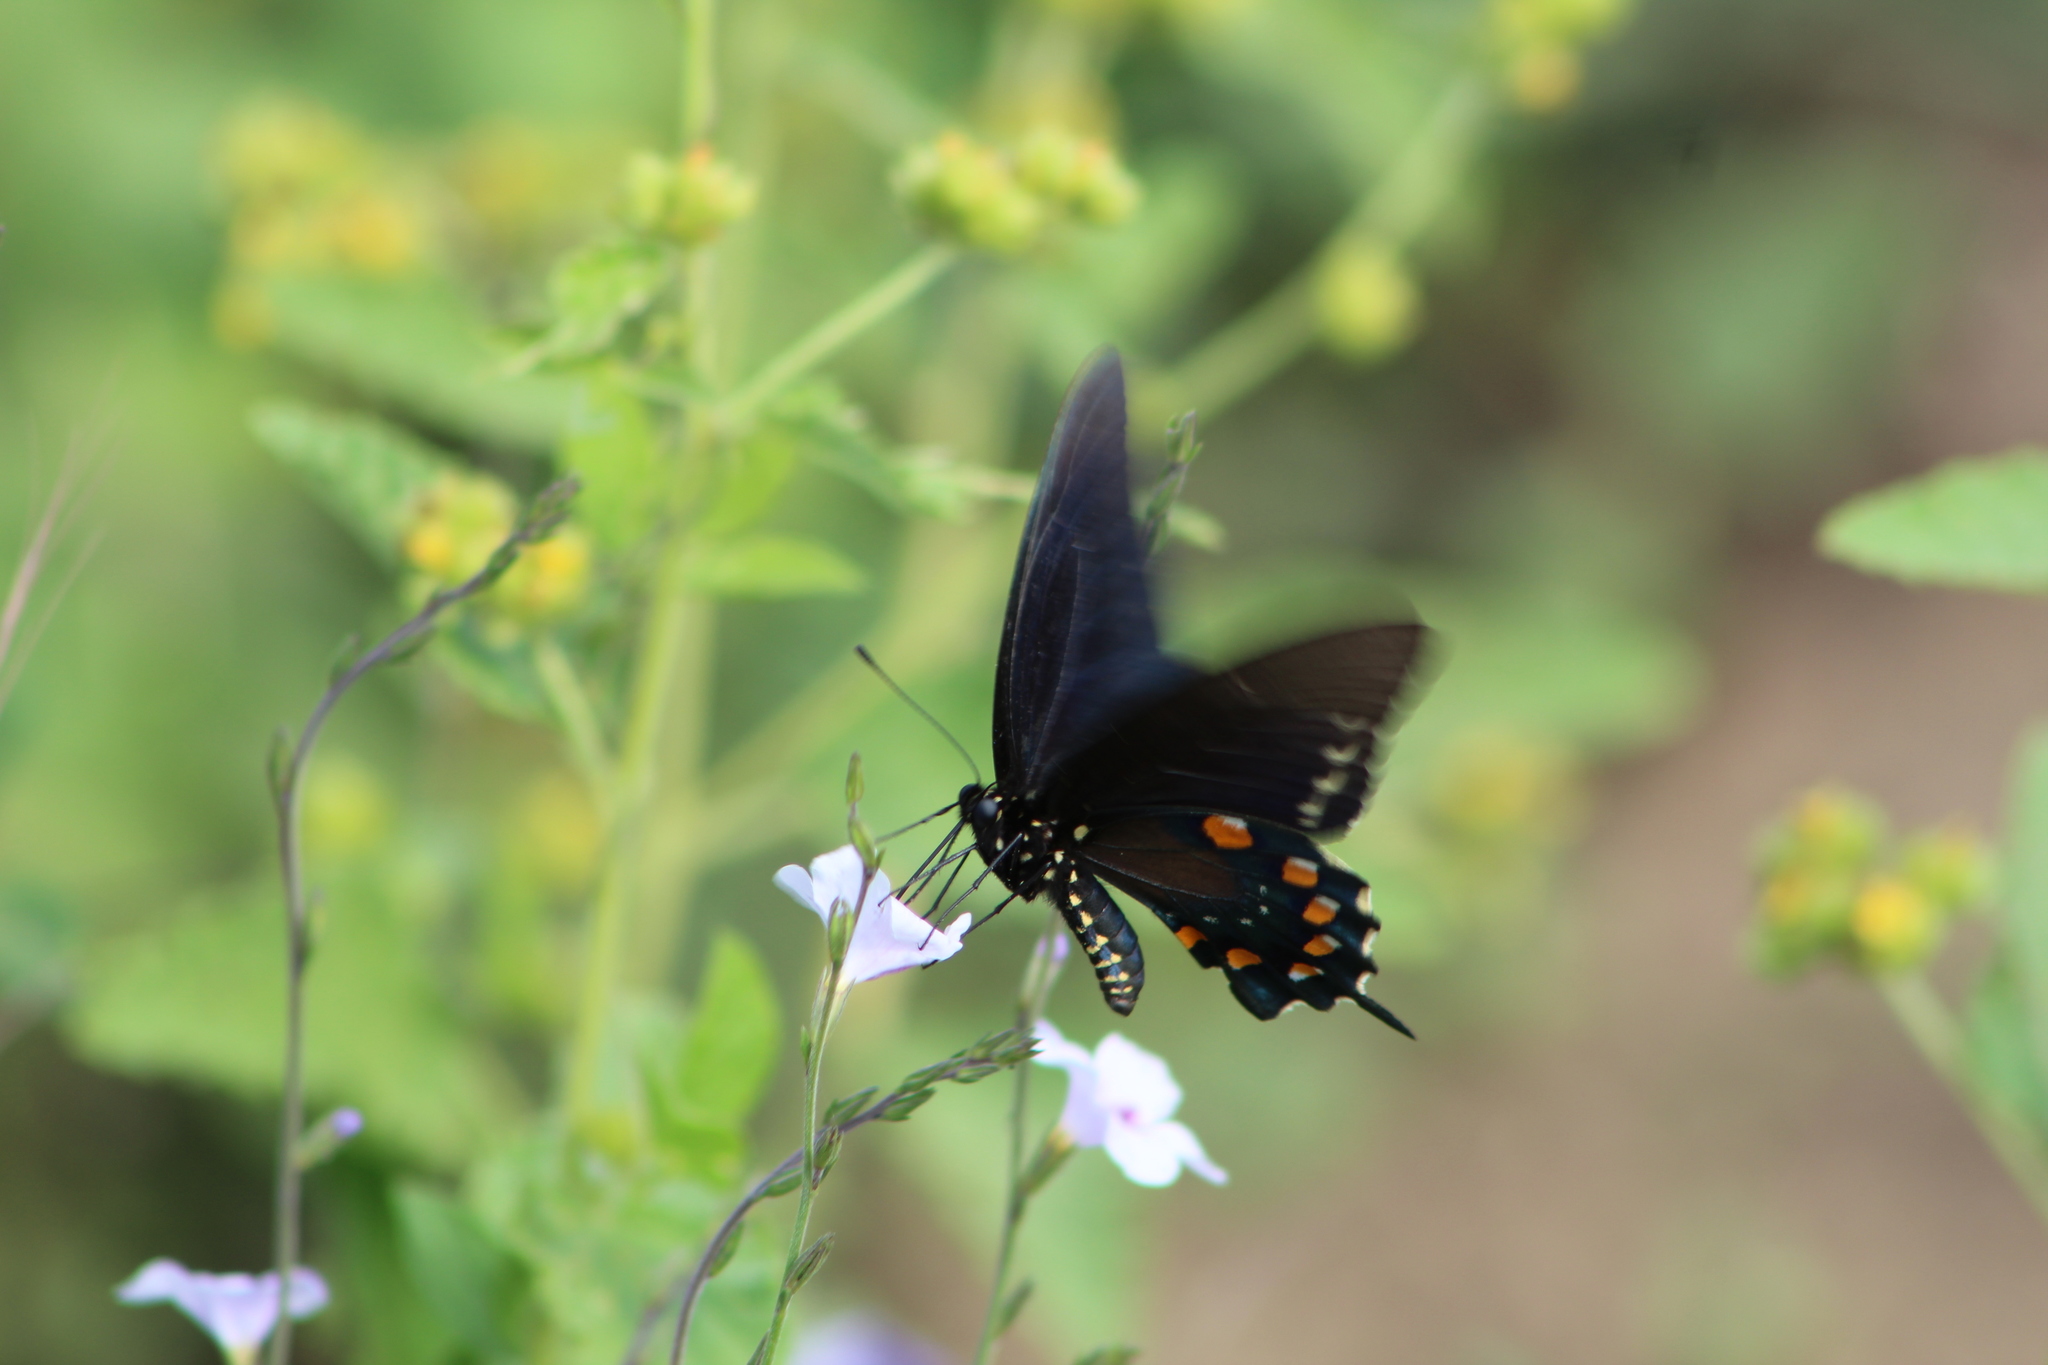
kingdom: Animalia
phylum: Arthropoda
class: Insecta
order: Lepidoptera
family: Papilionidae
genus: Battus
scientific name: Battus philenor
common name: Pipevine swallowtail
